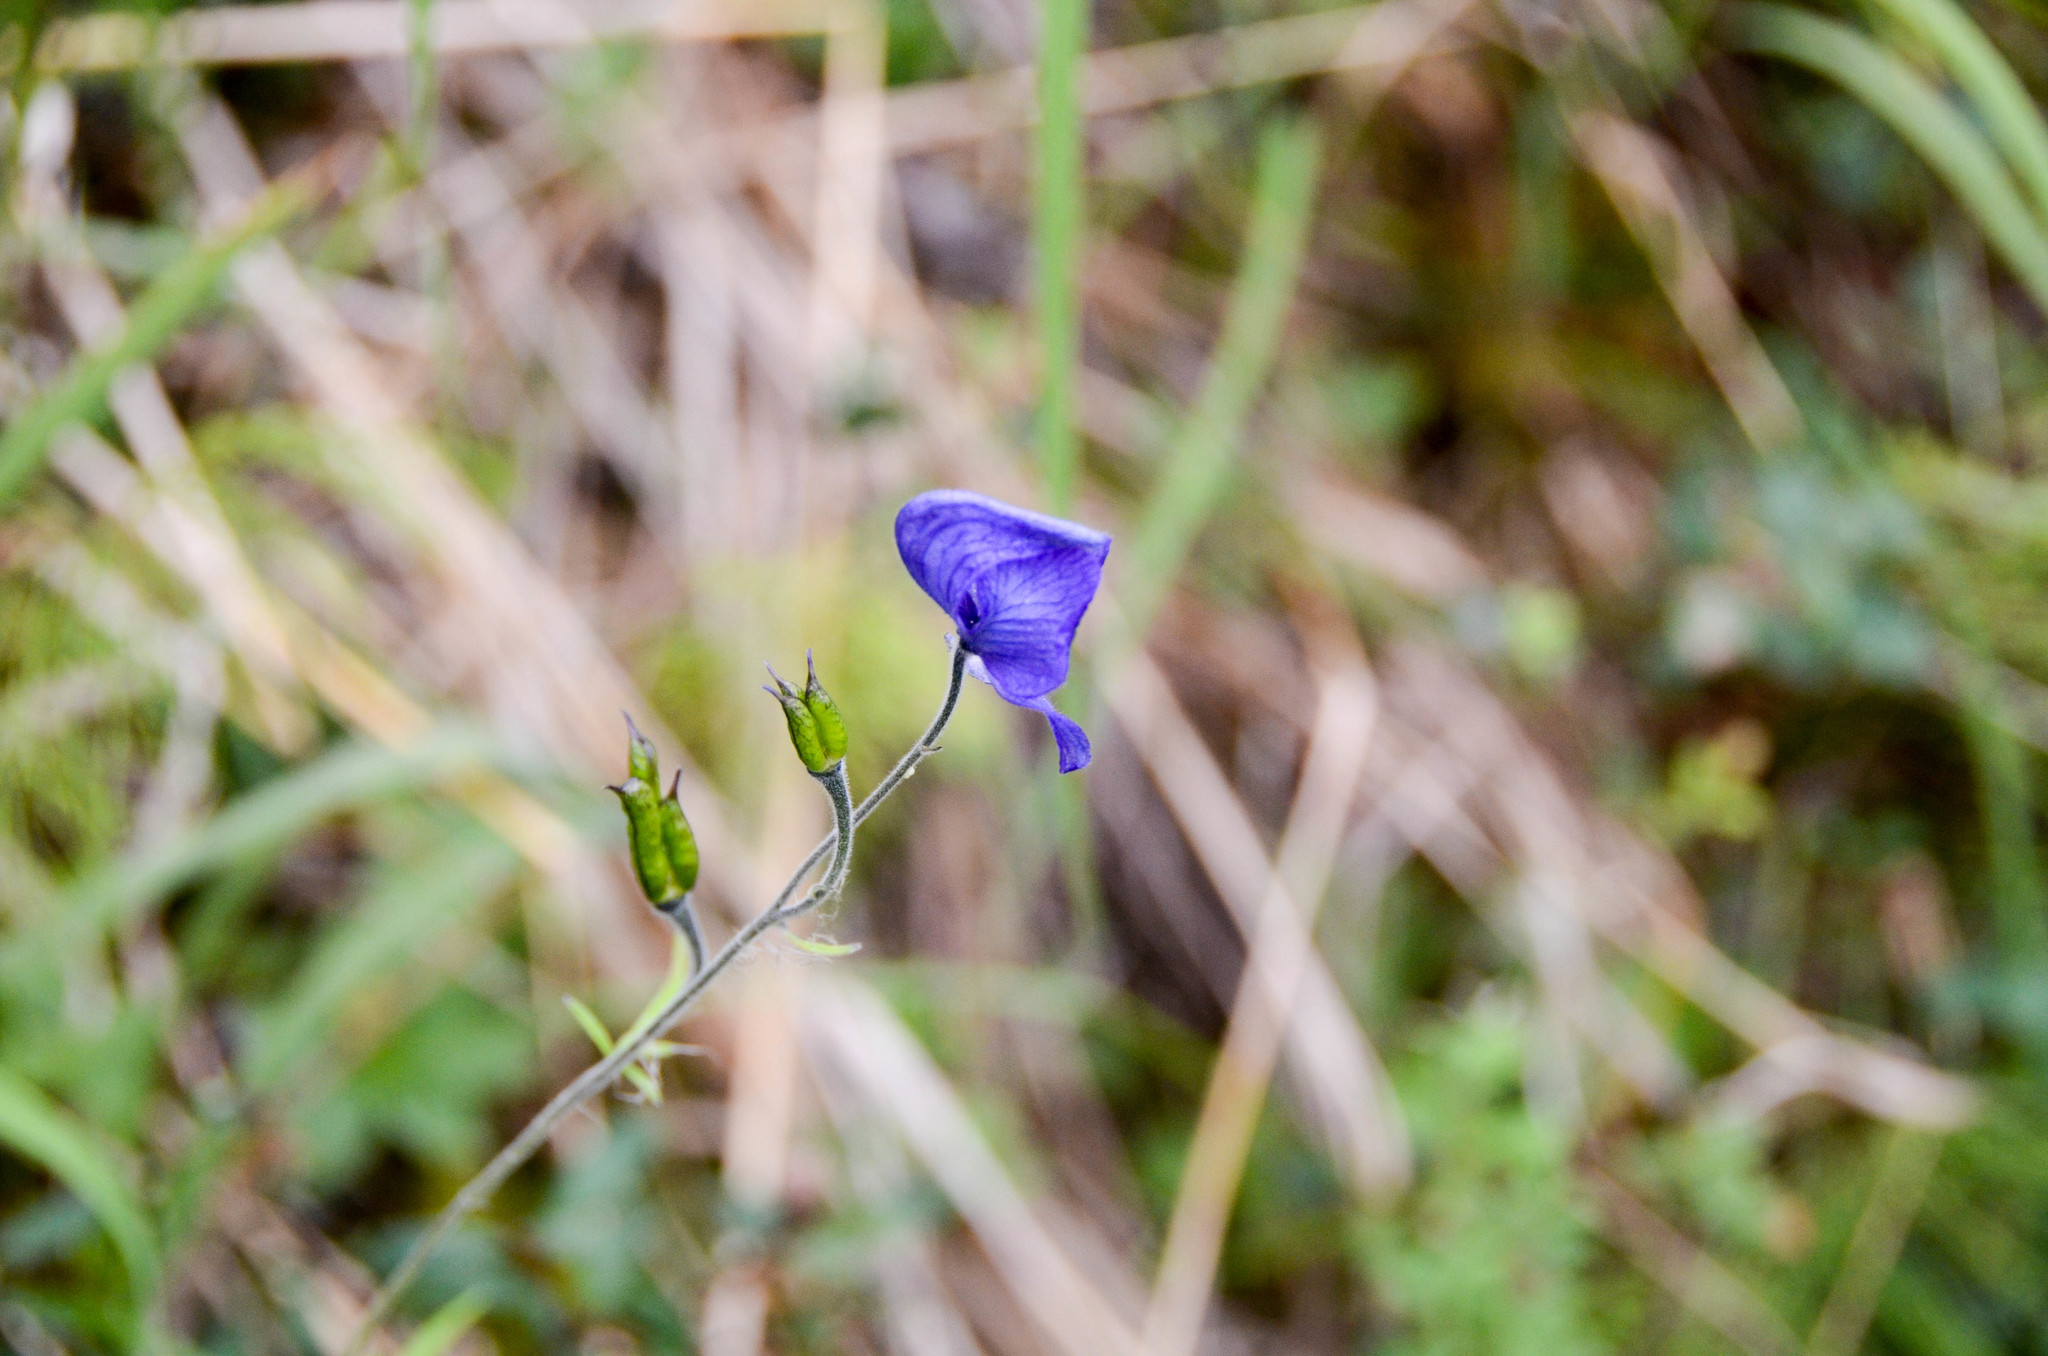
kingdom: Plantae
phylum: Tracheophyta
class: Magnoliopsida
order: Ranunculales
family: Ranunculaceae
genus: Aconitum
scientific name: Aconitum delphiniifolium
